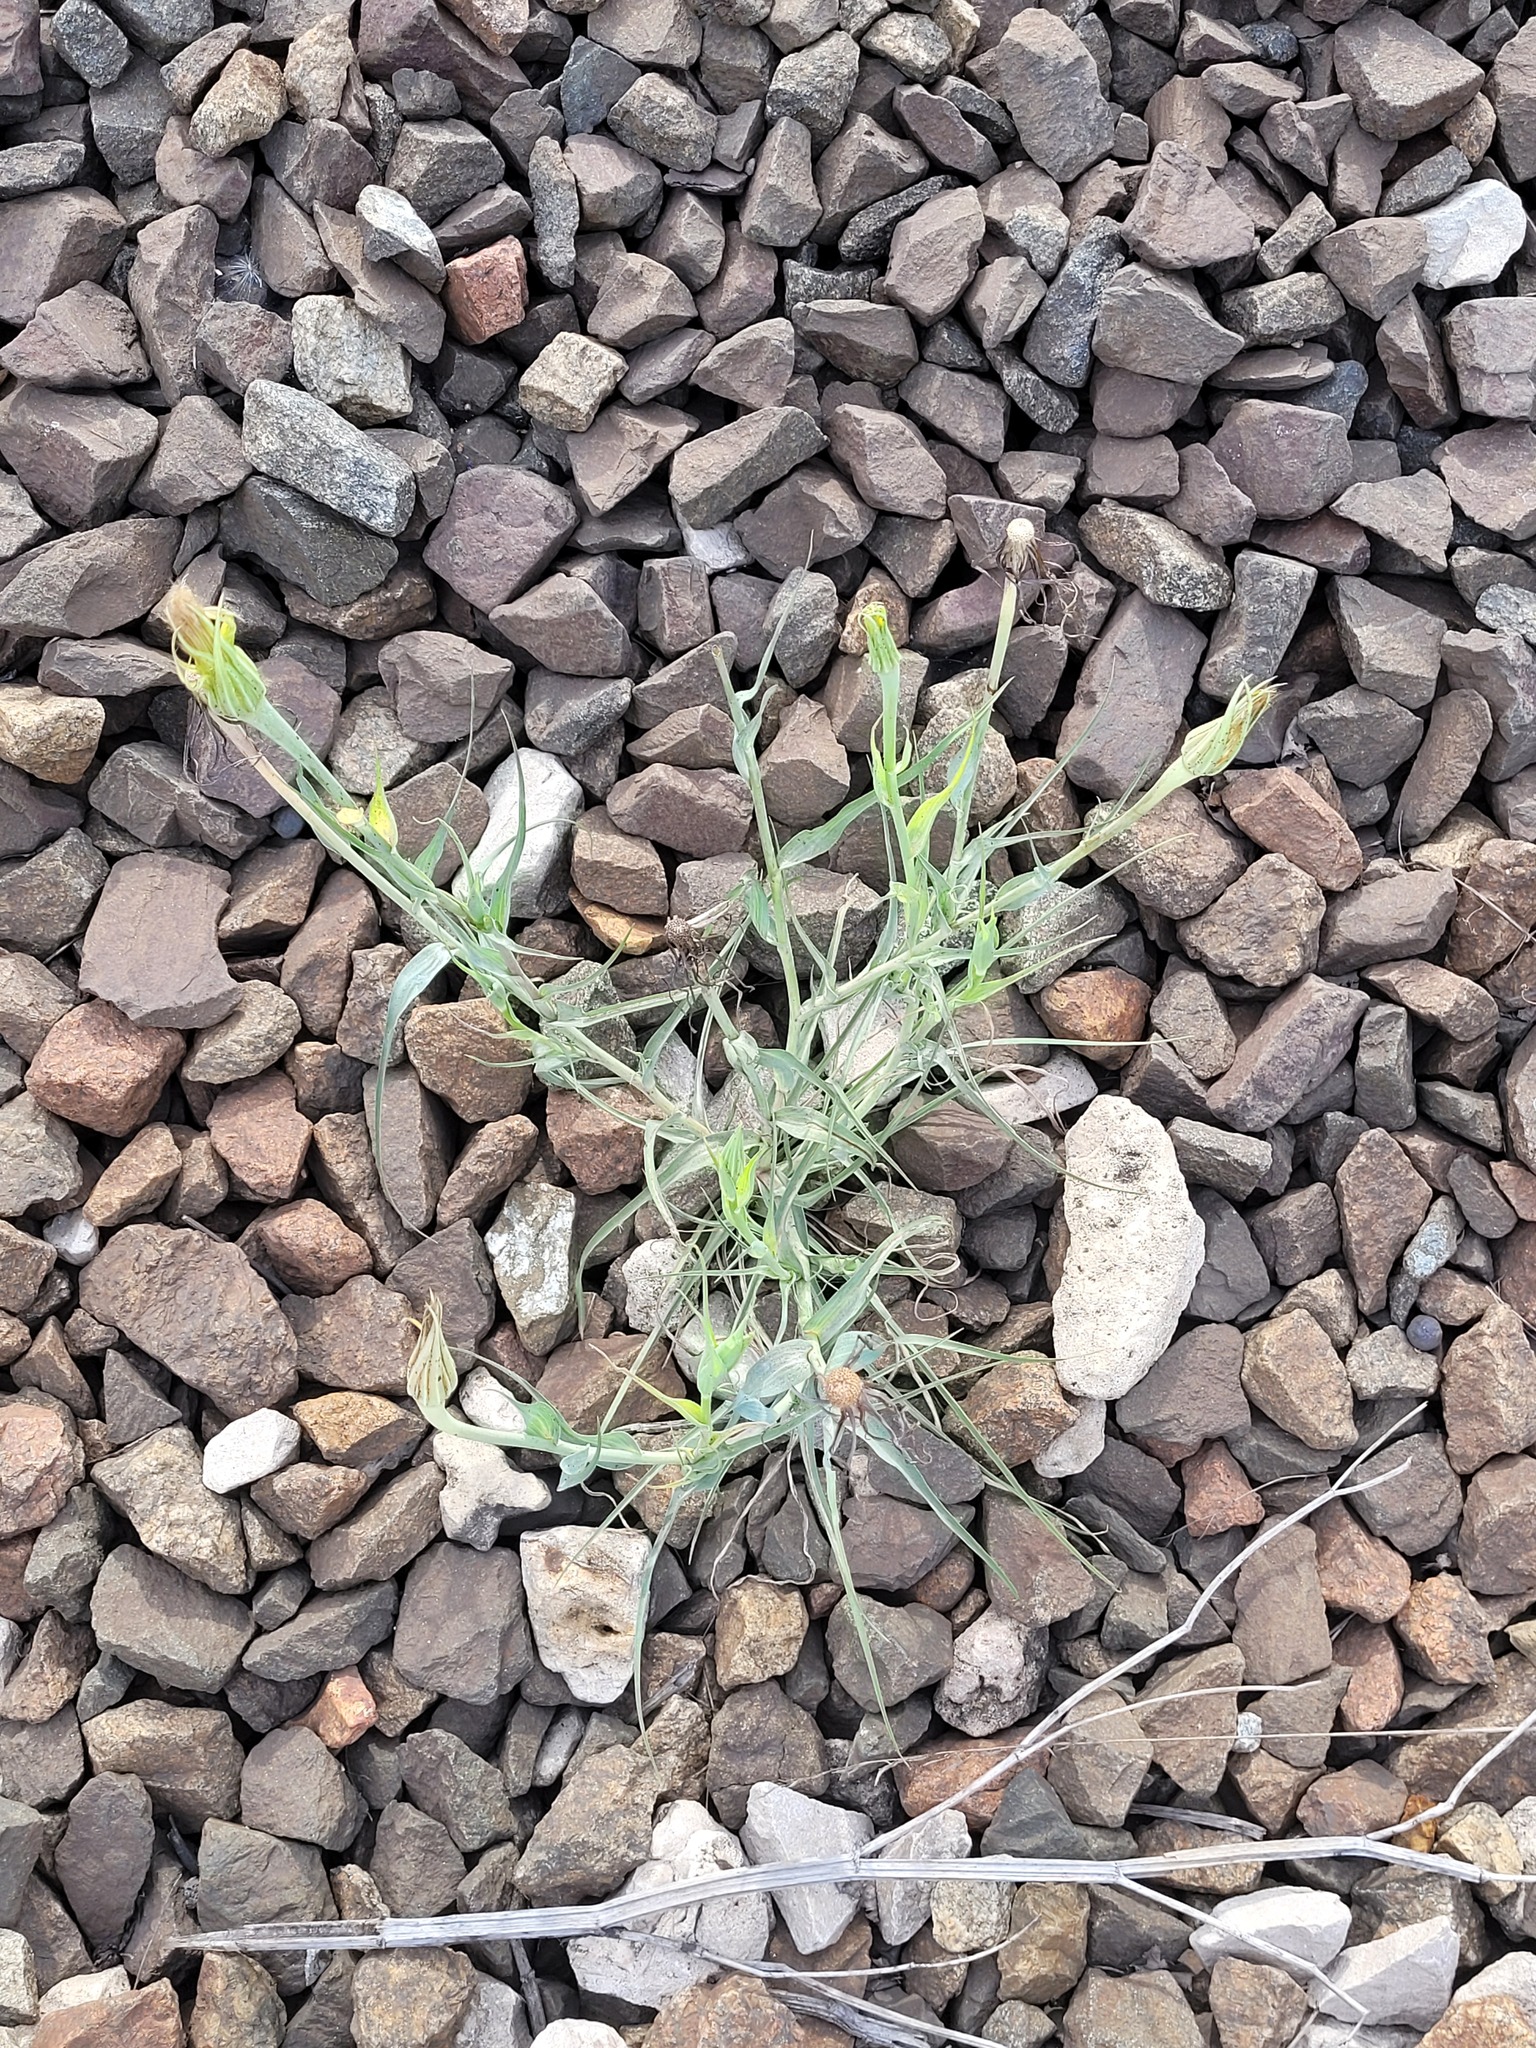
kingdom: Plantae
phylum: Tracheophyta
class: Magnoliopsida
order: Asterales
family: Asteraceae
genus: Tragopogon
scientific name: Tragopogon dubius
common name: Yellow salsify
